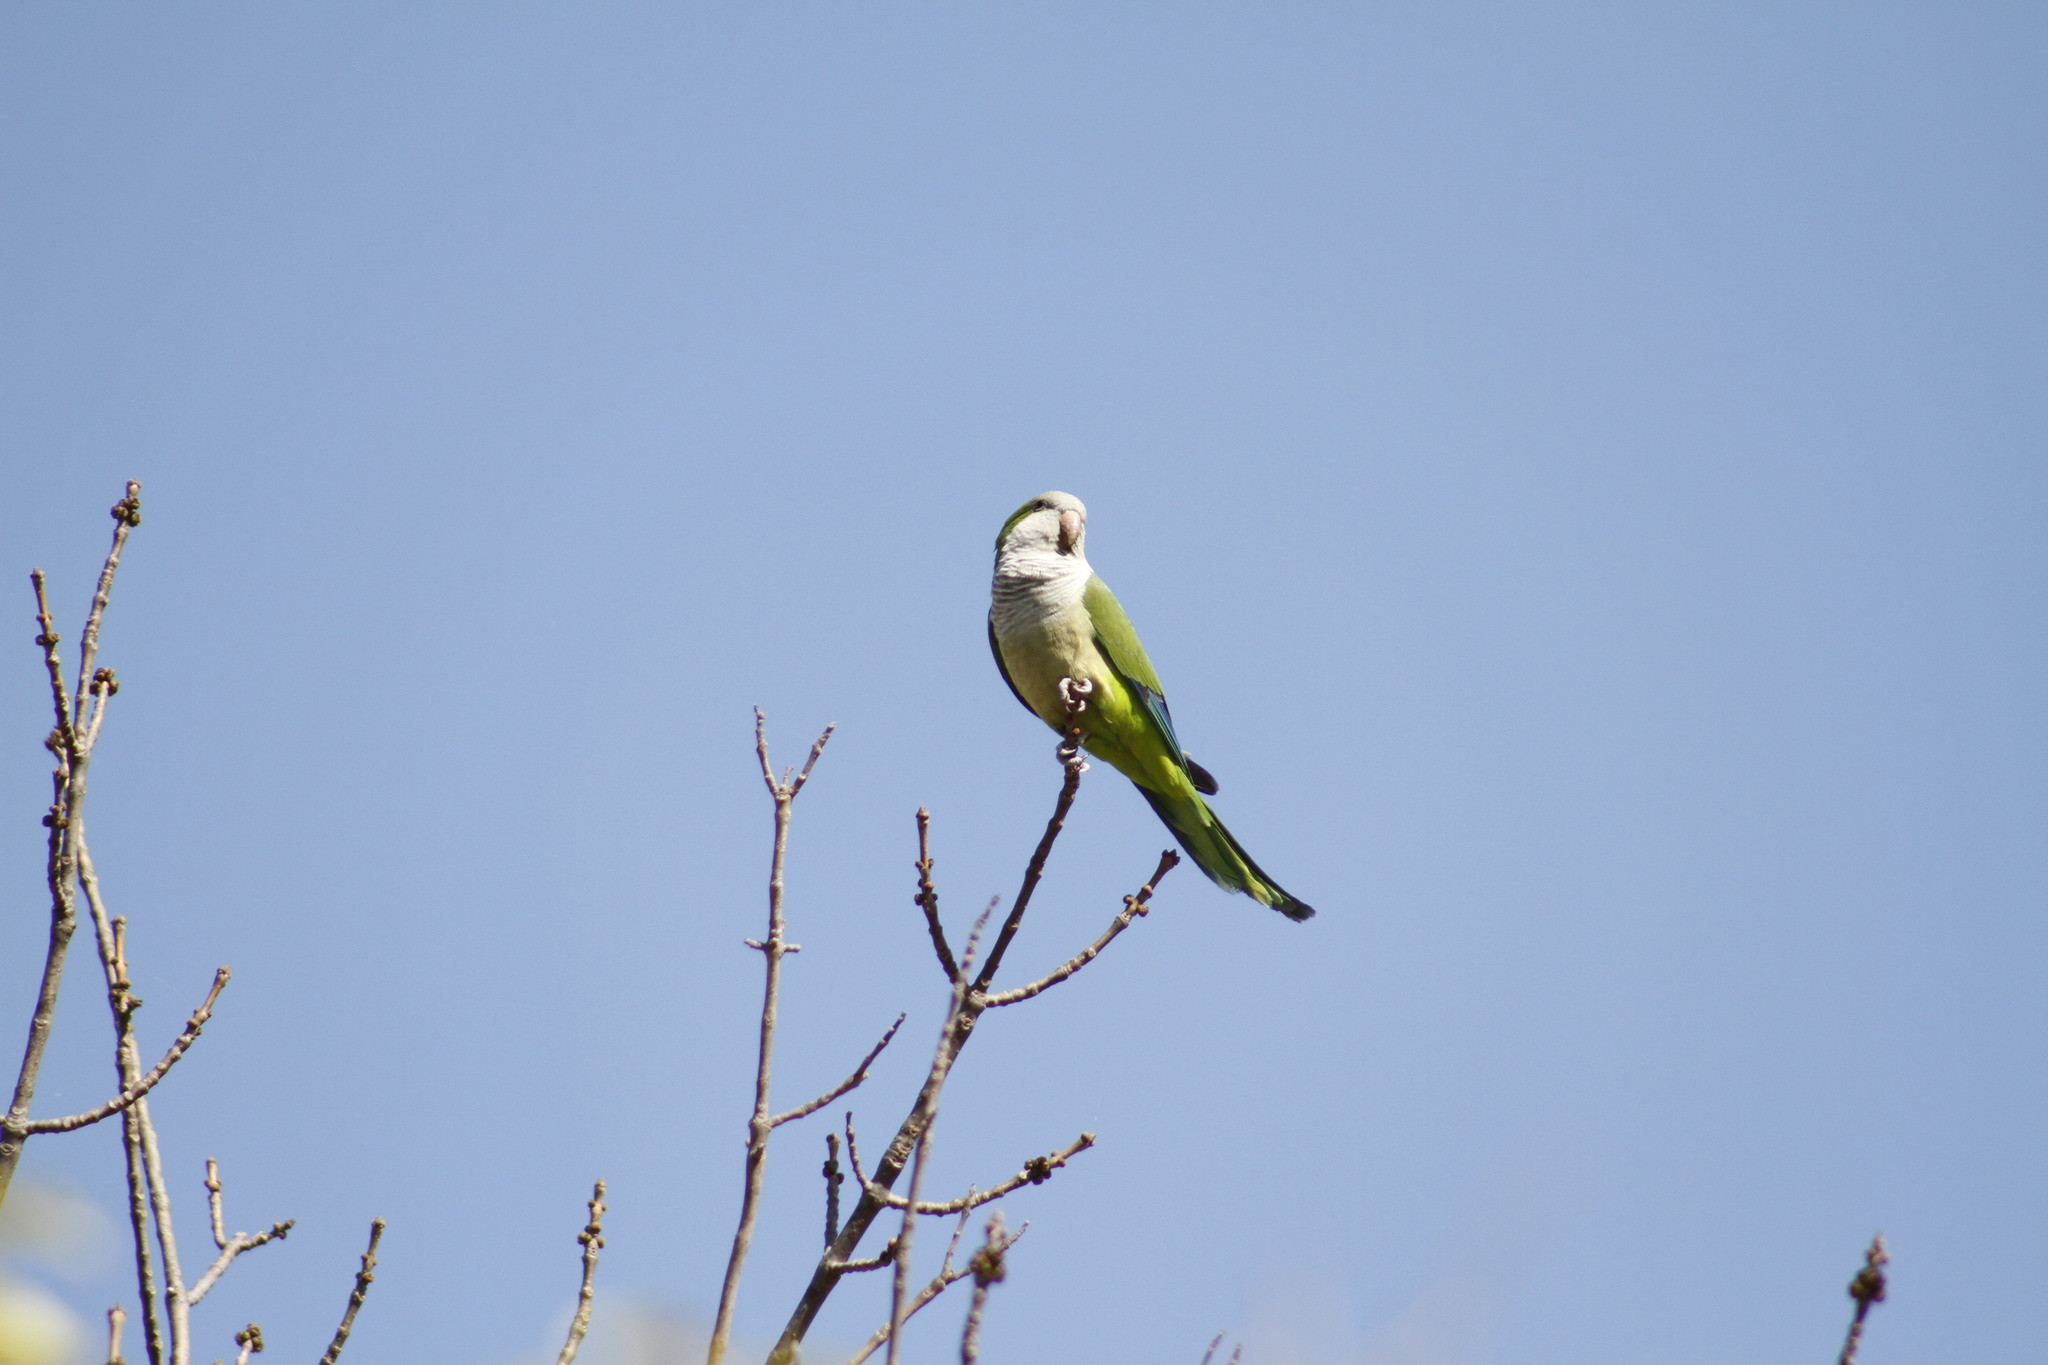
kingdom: Animalia
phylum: Chordata
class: Aves
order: Psittaciformes
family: Psittacidae
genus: Myiopsitta
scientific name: Myiopsitta monachus
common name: Monk parakeet
